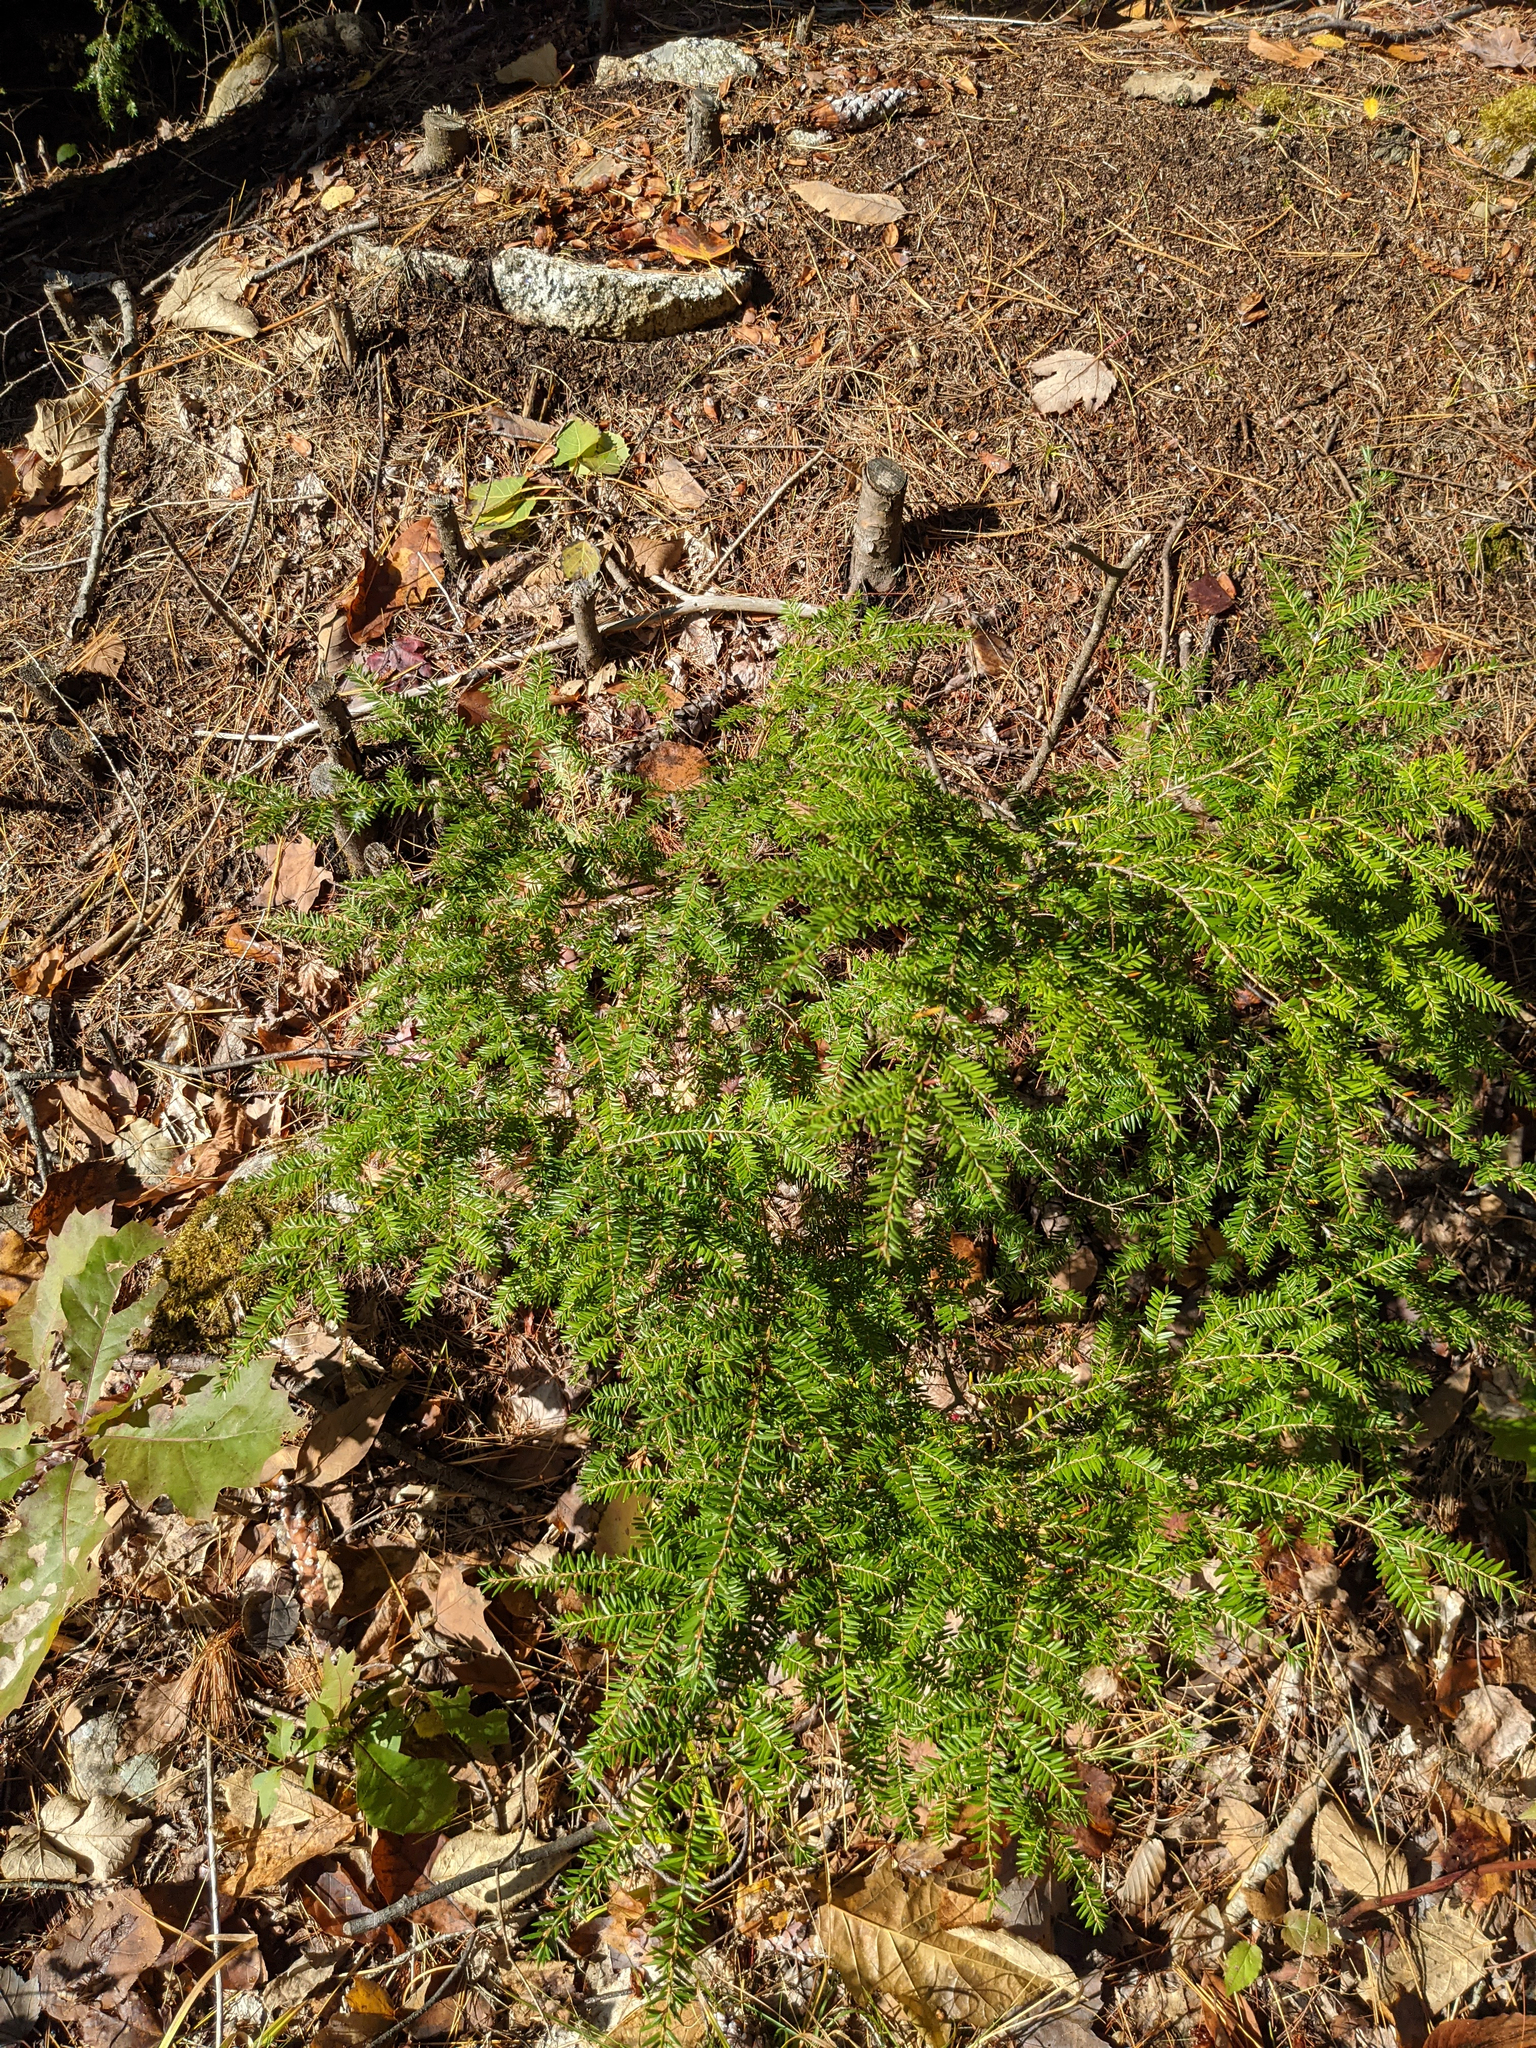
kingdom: Plantae
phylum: Tracheophyta
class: Pinopsida
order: Pinales
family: Pinaceae
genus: Tsuga
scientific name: Tsuga canadensis
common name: Eastern hemlock
